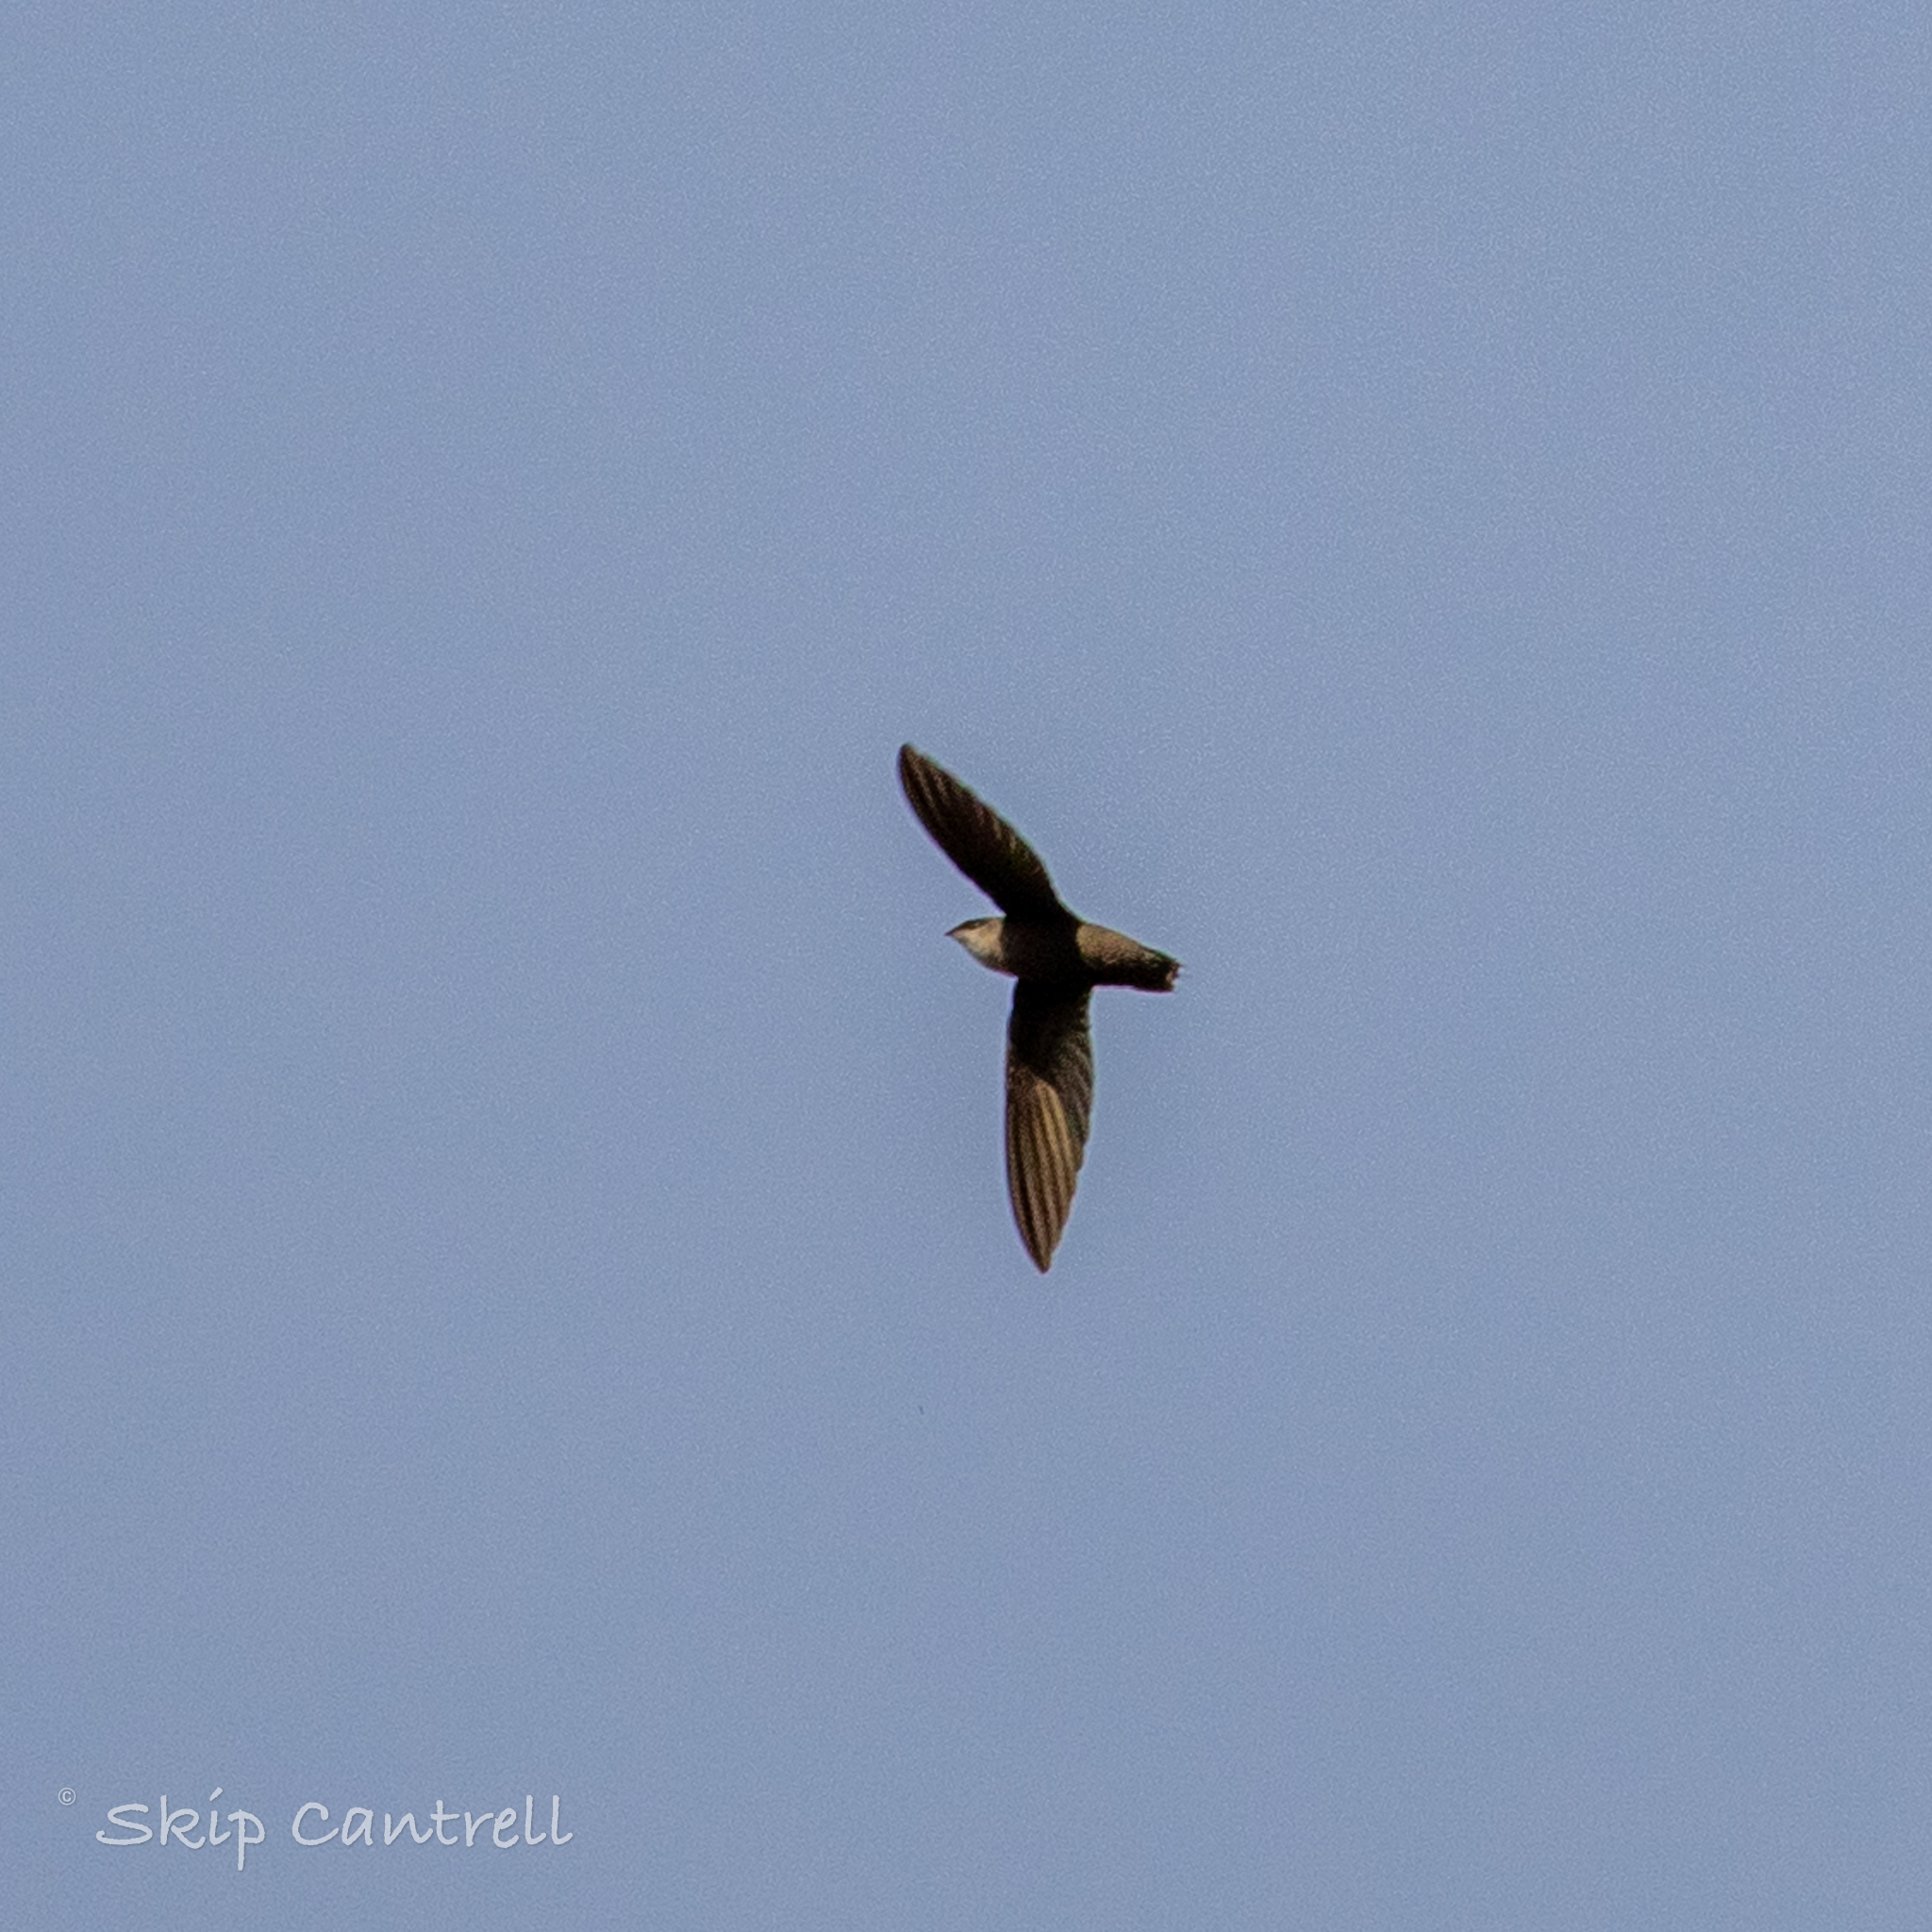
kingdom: Animalia
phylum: Chordata
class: Aves
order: Apodiformes
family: Apodidae
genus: Chaetura
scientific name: Chaetura pelagica
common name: Chimney swift
